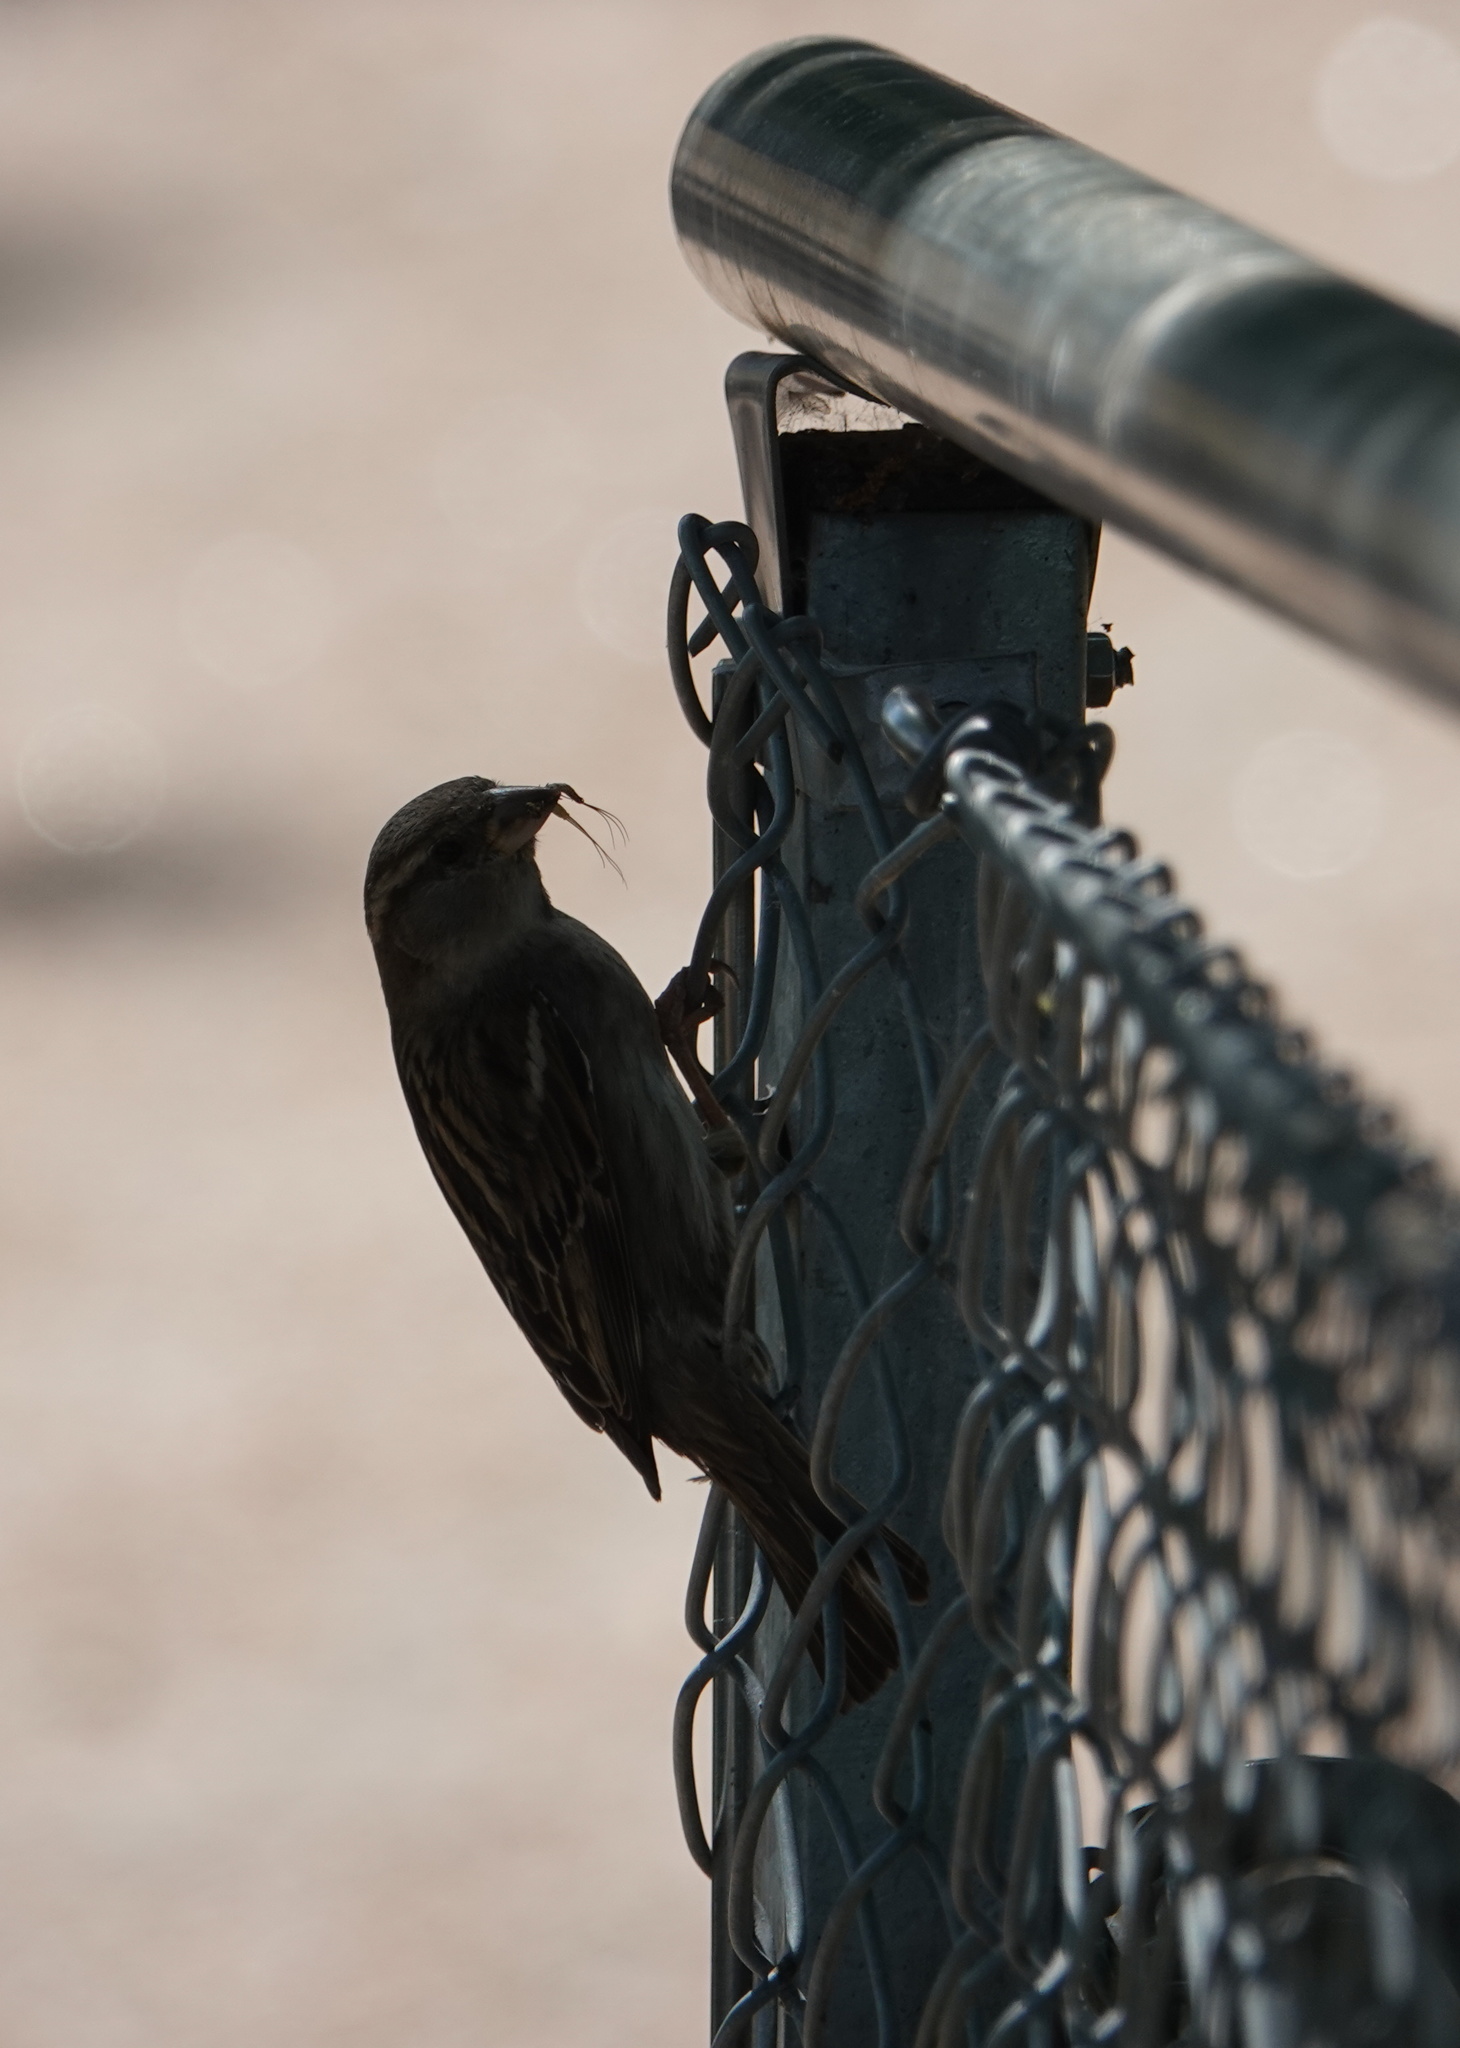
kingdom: Animalia
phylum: Chordata
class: Aves
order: Passeriformes
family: Passeridae
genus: Passer
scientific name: Passer domesticus
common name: House sparrow
